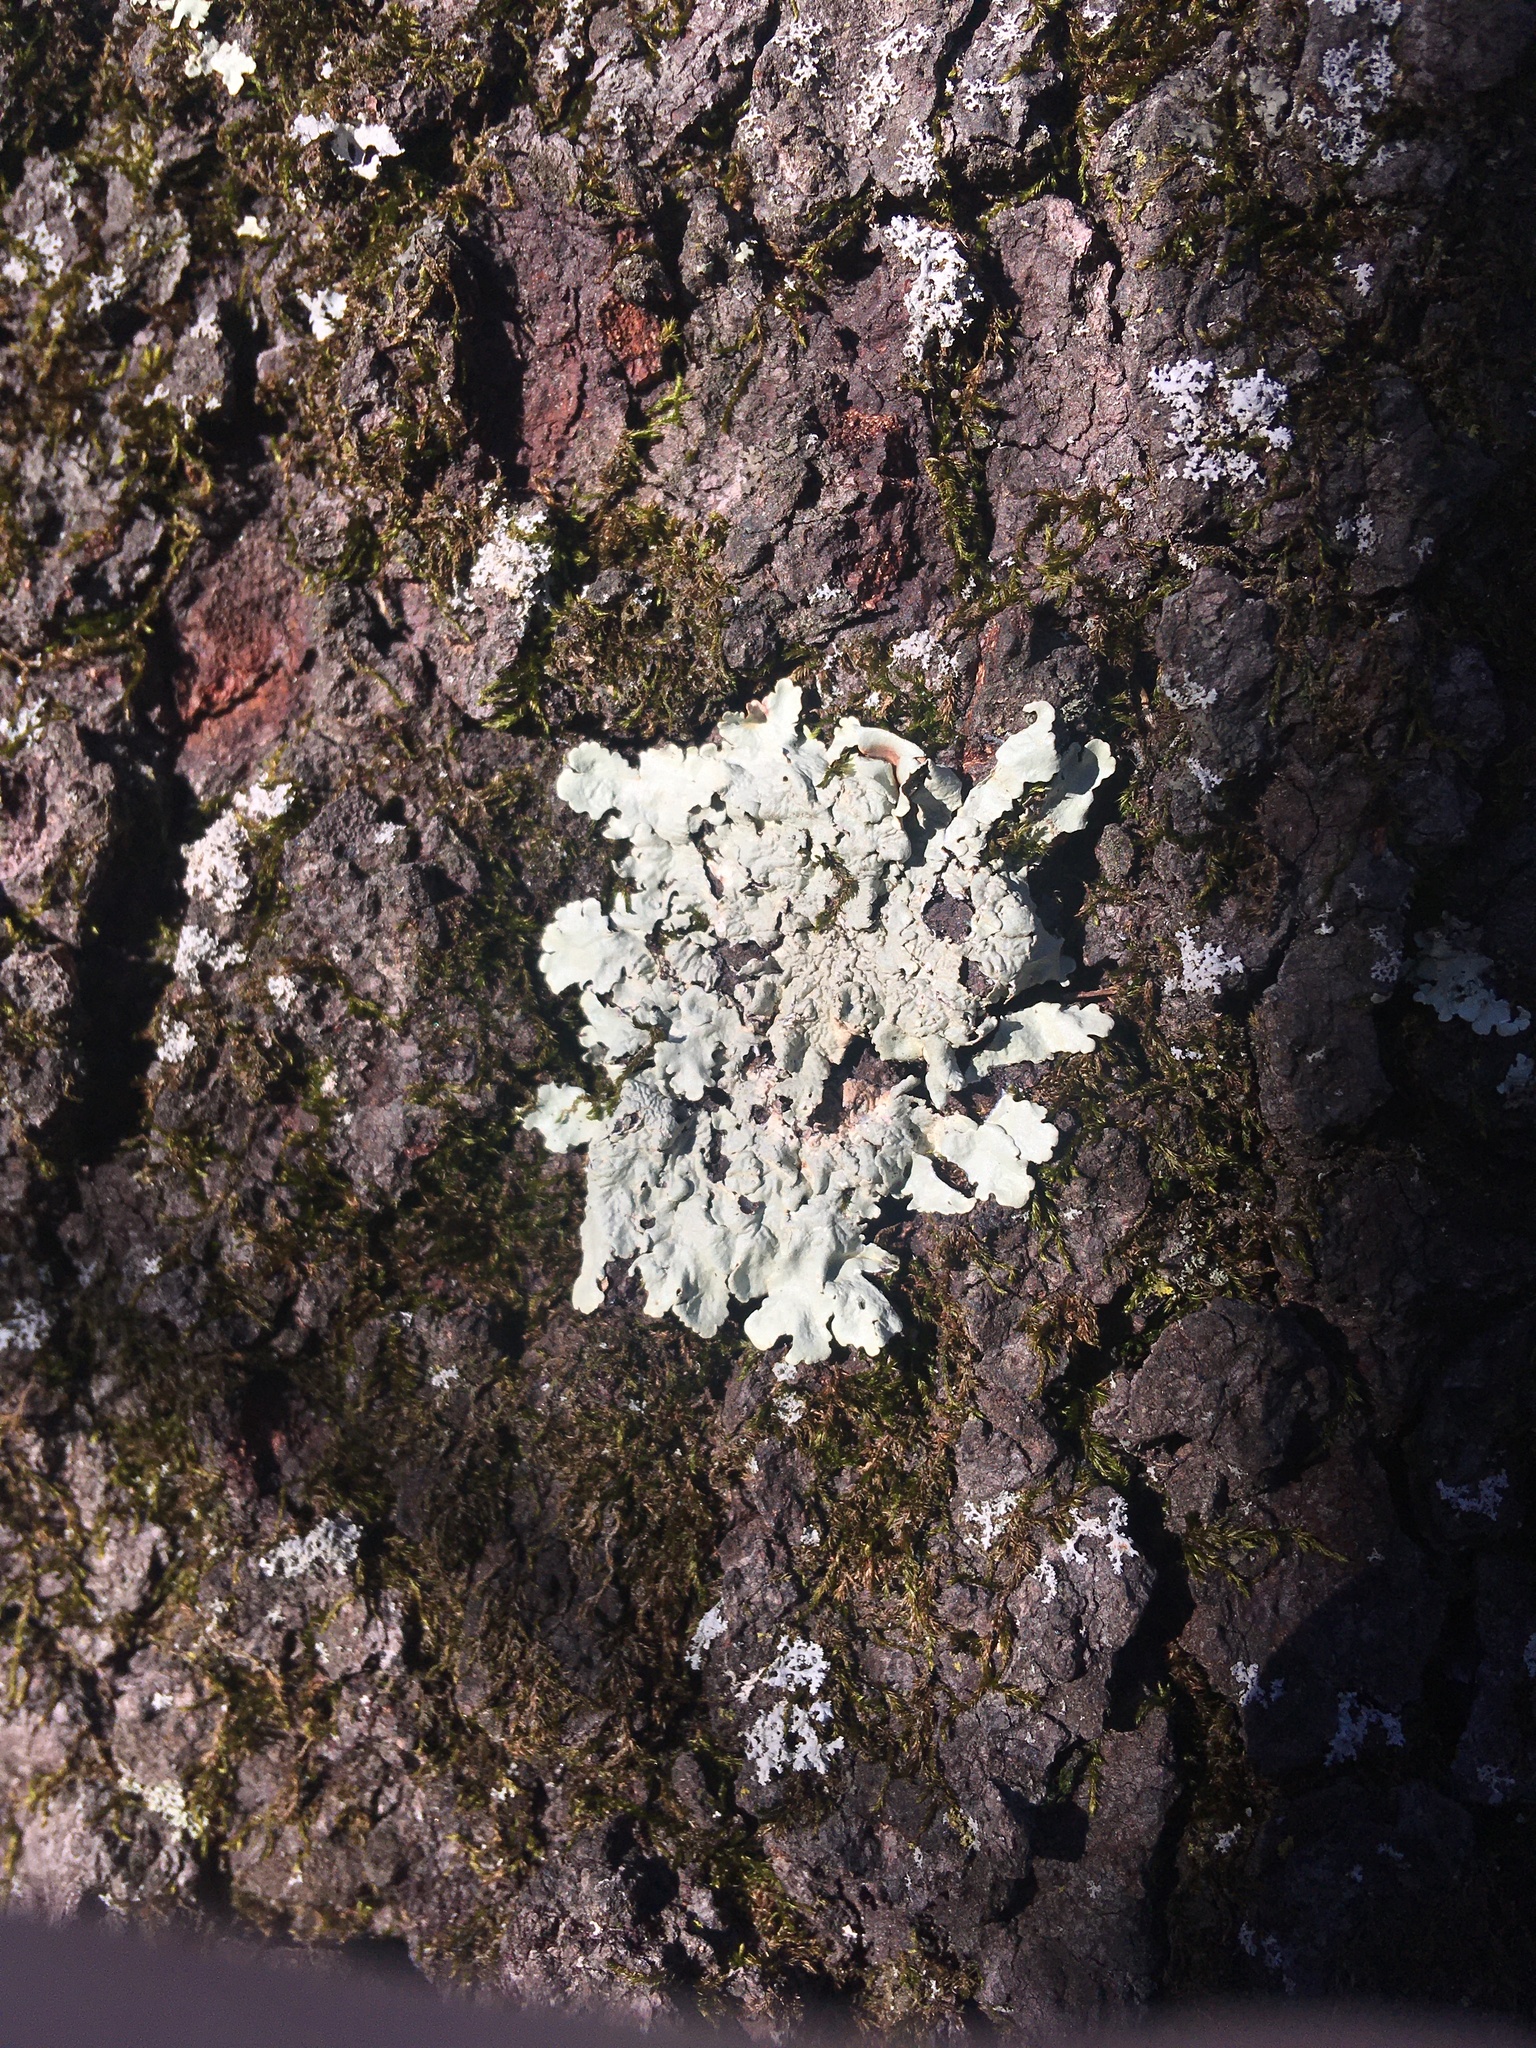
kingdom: Fungi
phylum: Ascomycota
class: Lecanoromycetes
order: Lecanorales
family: Parmeliaceae
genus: Flavoparmelia
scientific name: Flavoparmelia caperata
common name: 40-mile per hour lichen
